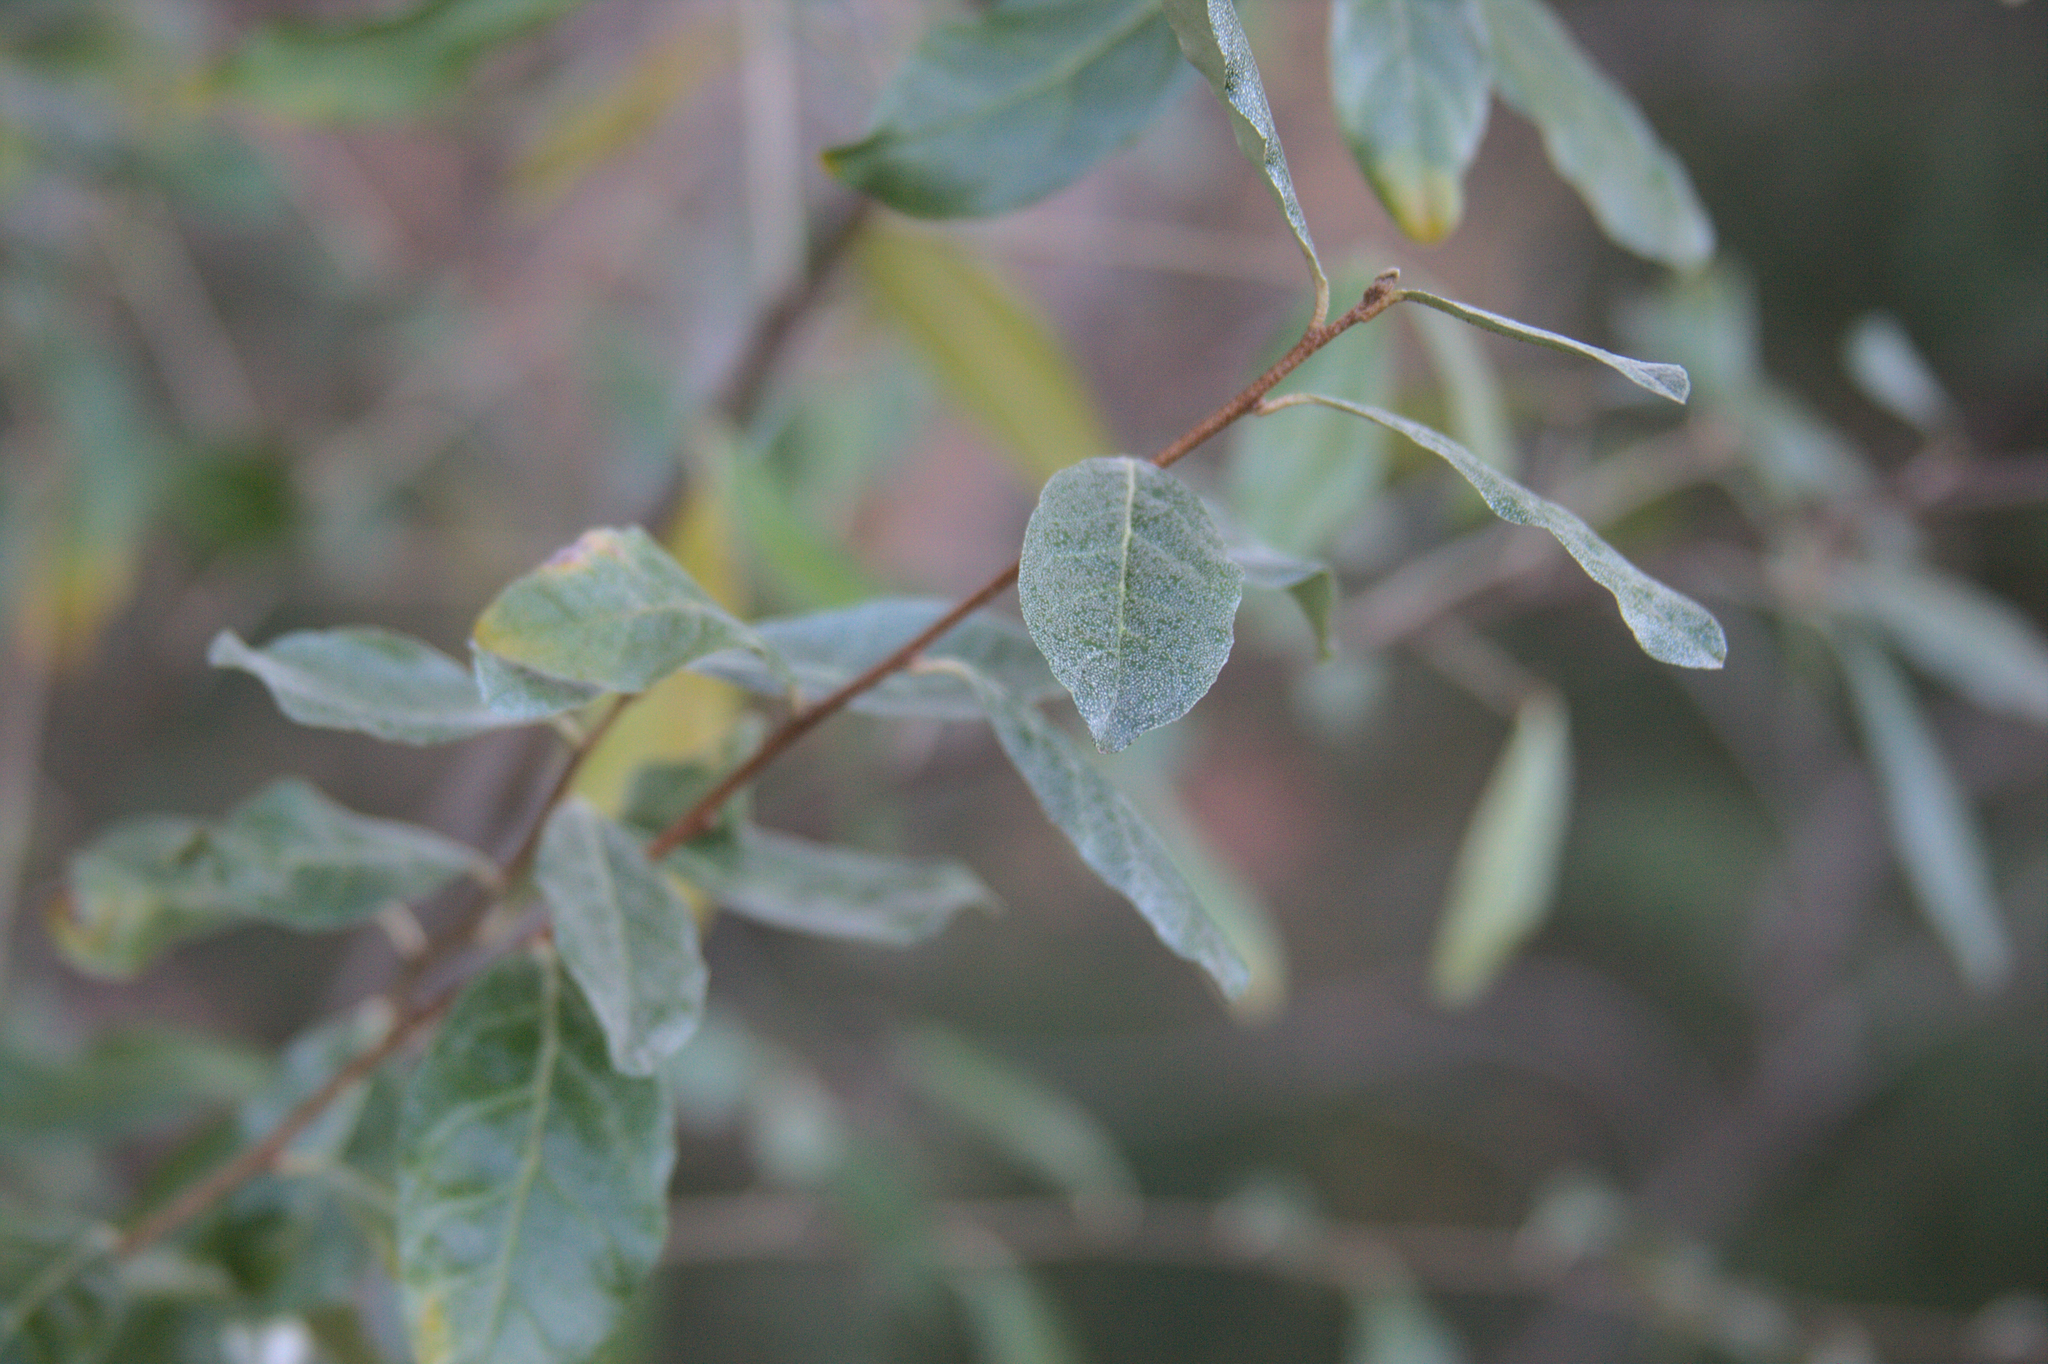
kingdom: Plantae
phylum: Tracheophyta
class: Magnoliopsida
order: Rosales
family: Elaeagnaceae
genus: Elaeagnus
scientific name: Elaeagnus umbellata
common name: Autumn olive
